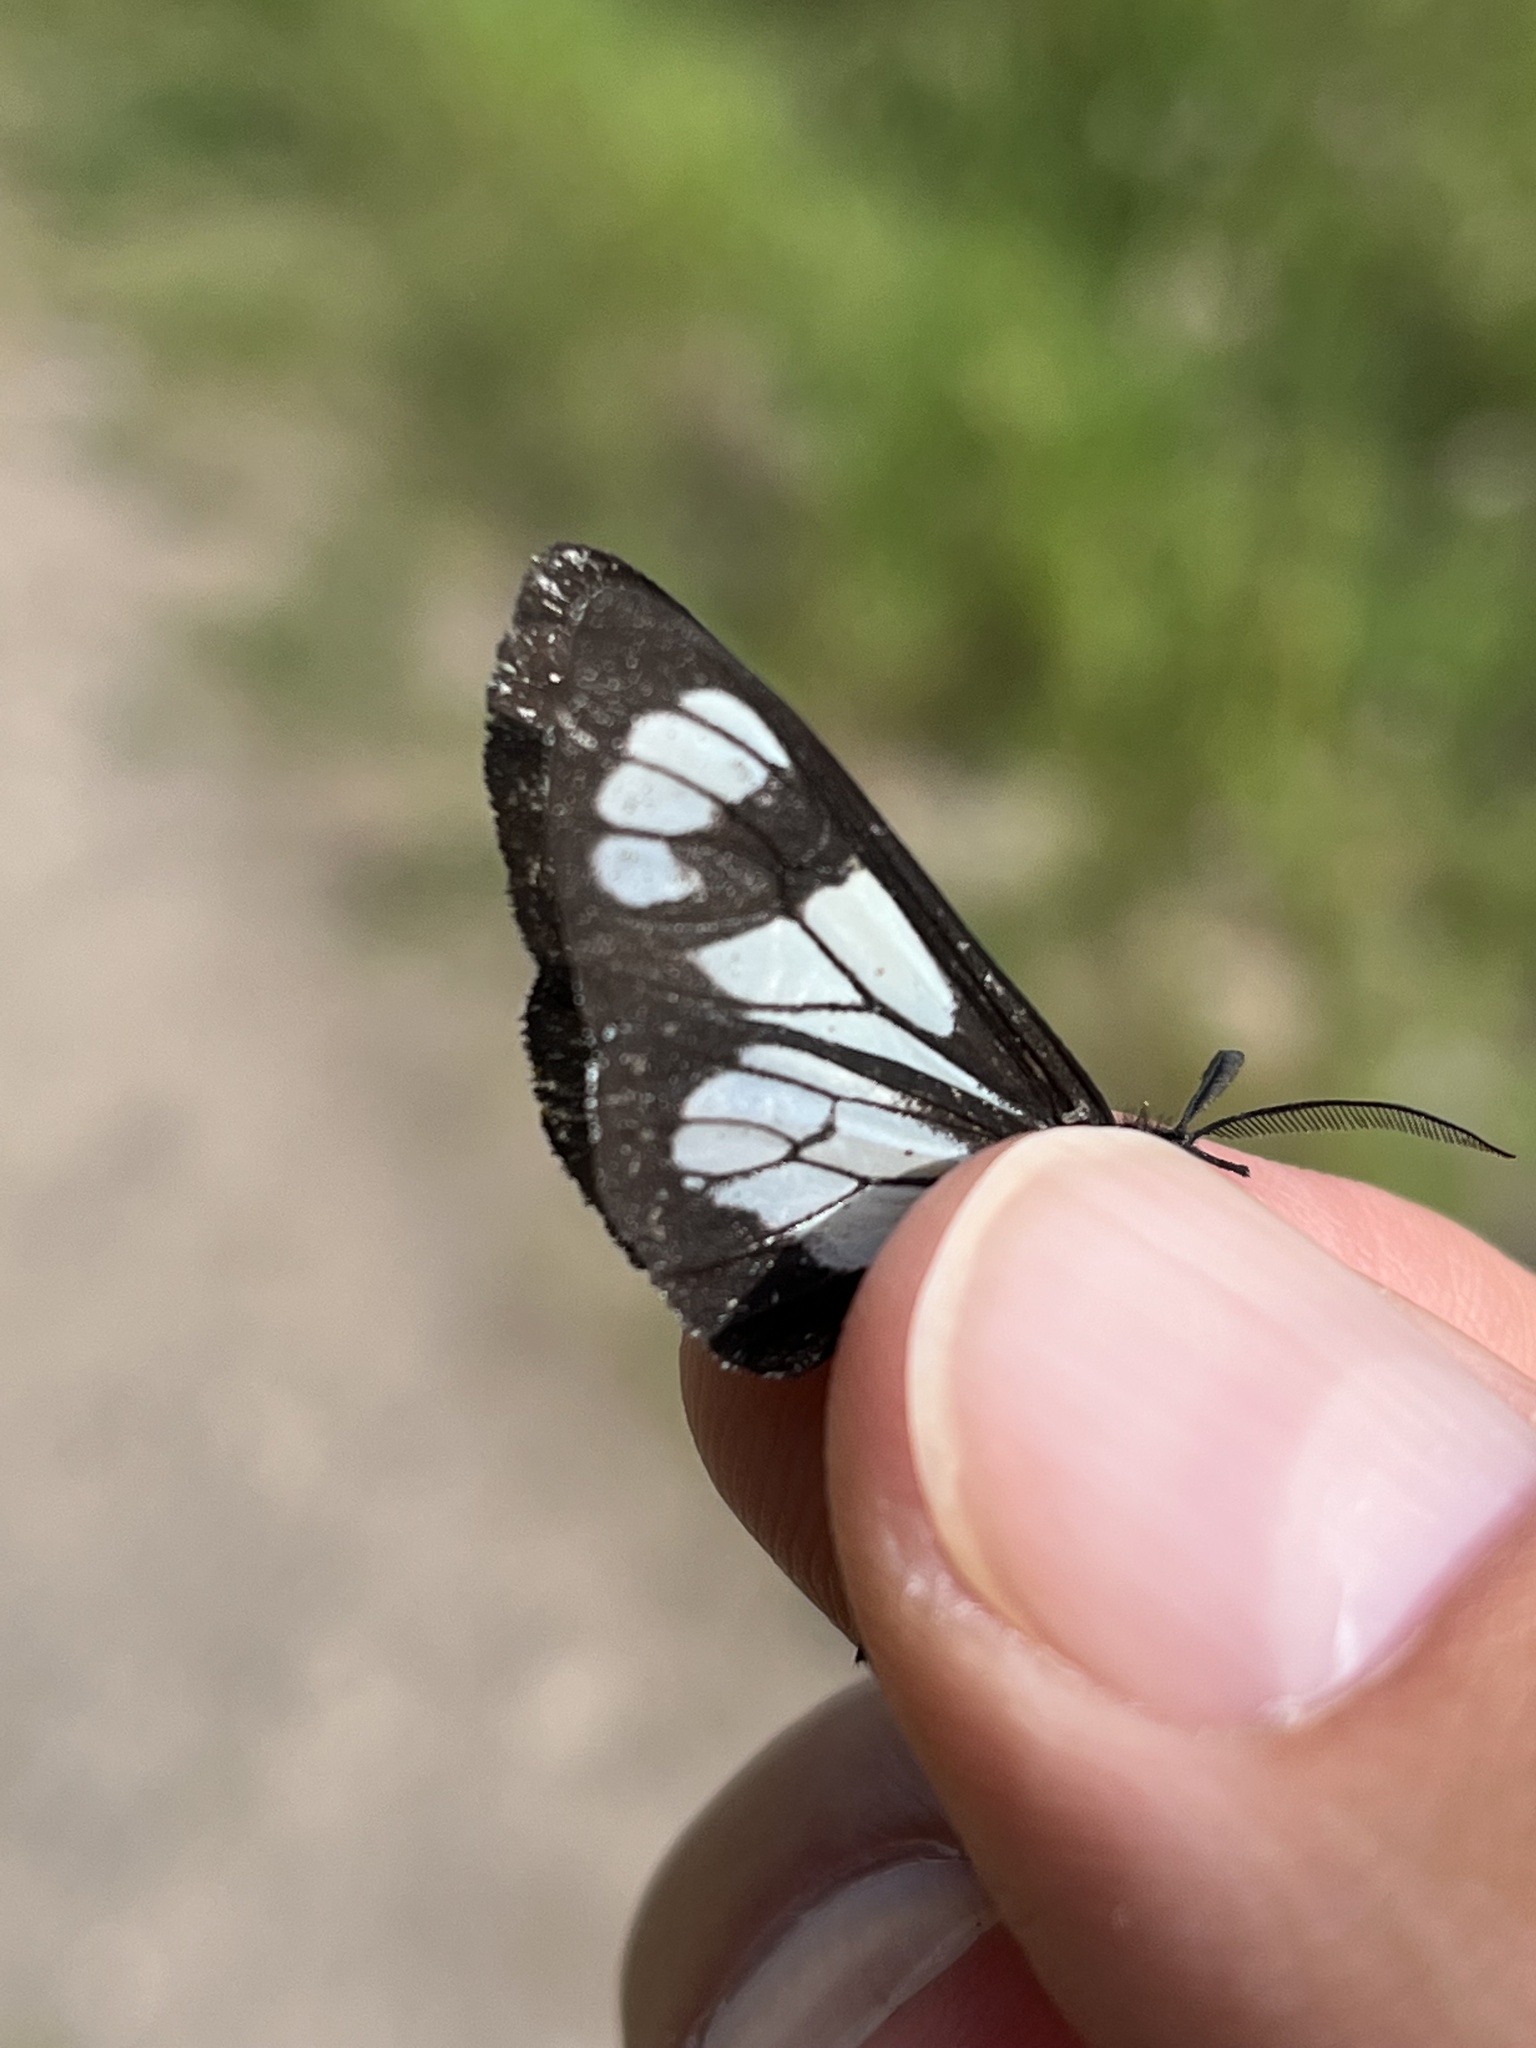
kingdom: Animalia
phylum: Arthropoda
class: Insecta
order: Lepidoptera
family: Erebidae
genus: Gnophaela
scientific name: Gnophaela vermiculata
